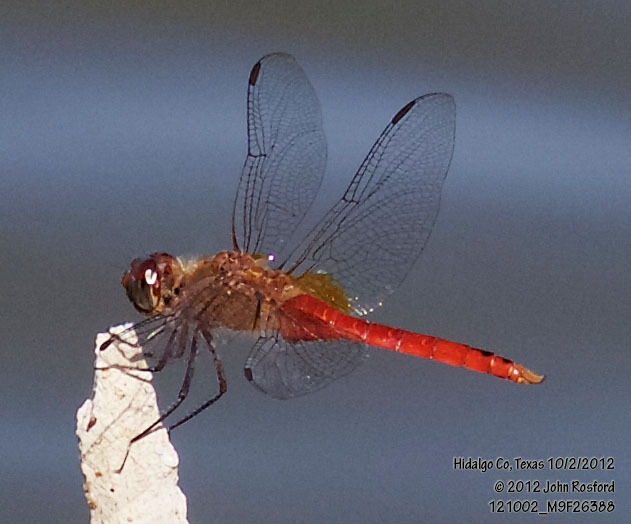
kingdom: Animalia
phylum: Arthropoda
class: Insecta
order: Odonata
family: Libellulidae
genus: Brachymesia
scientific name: Brachymesia furcata
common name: Red-taled pennant
